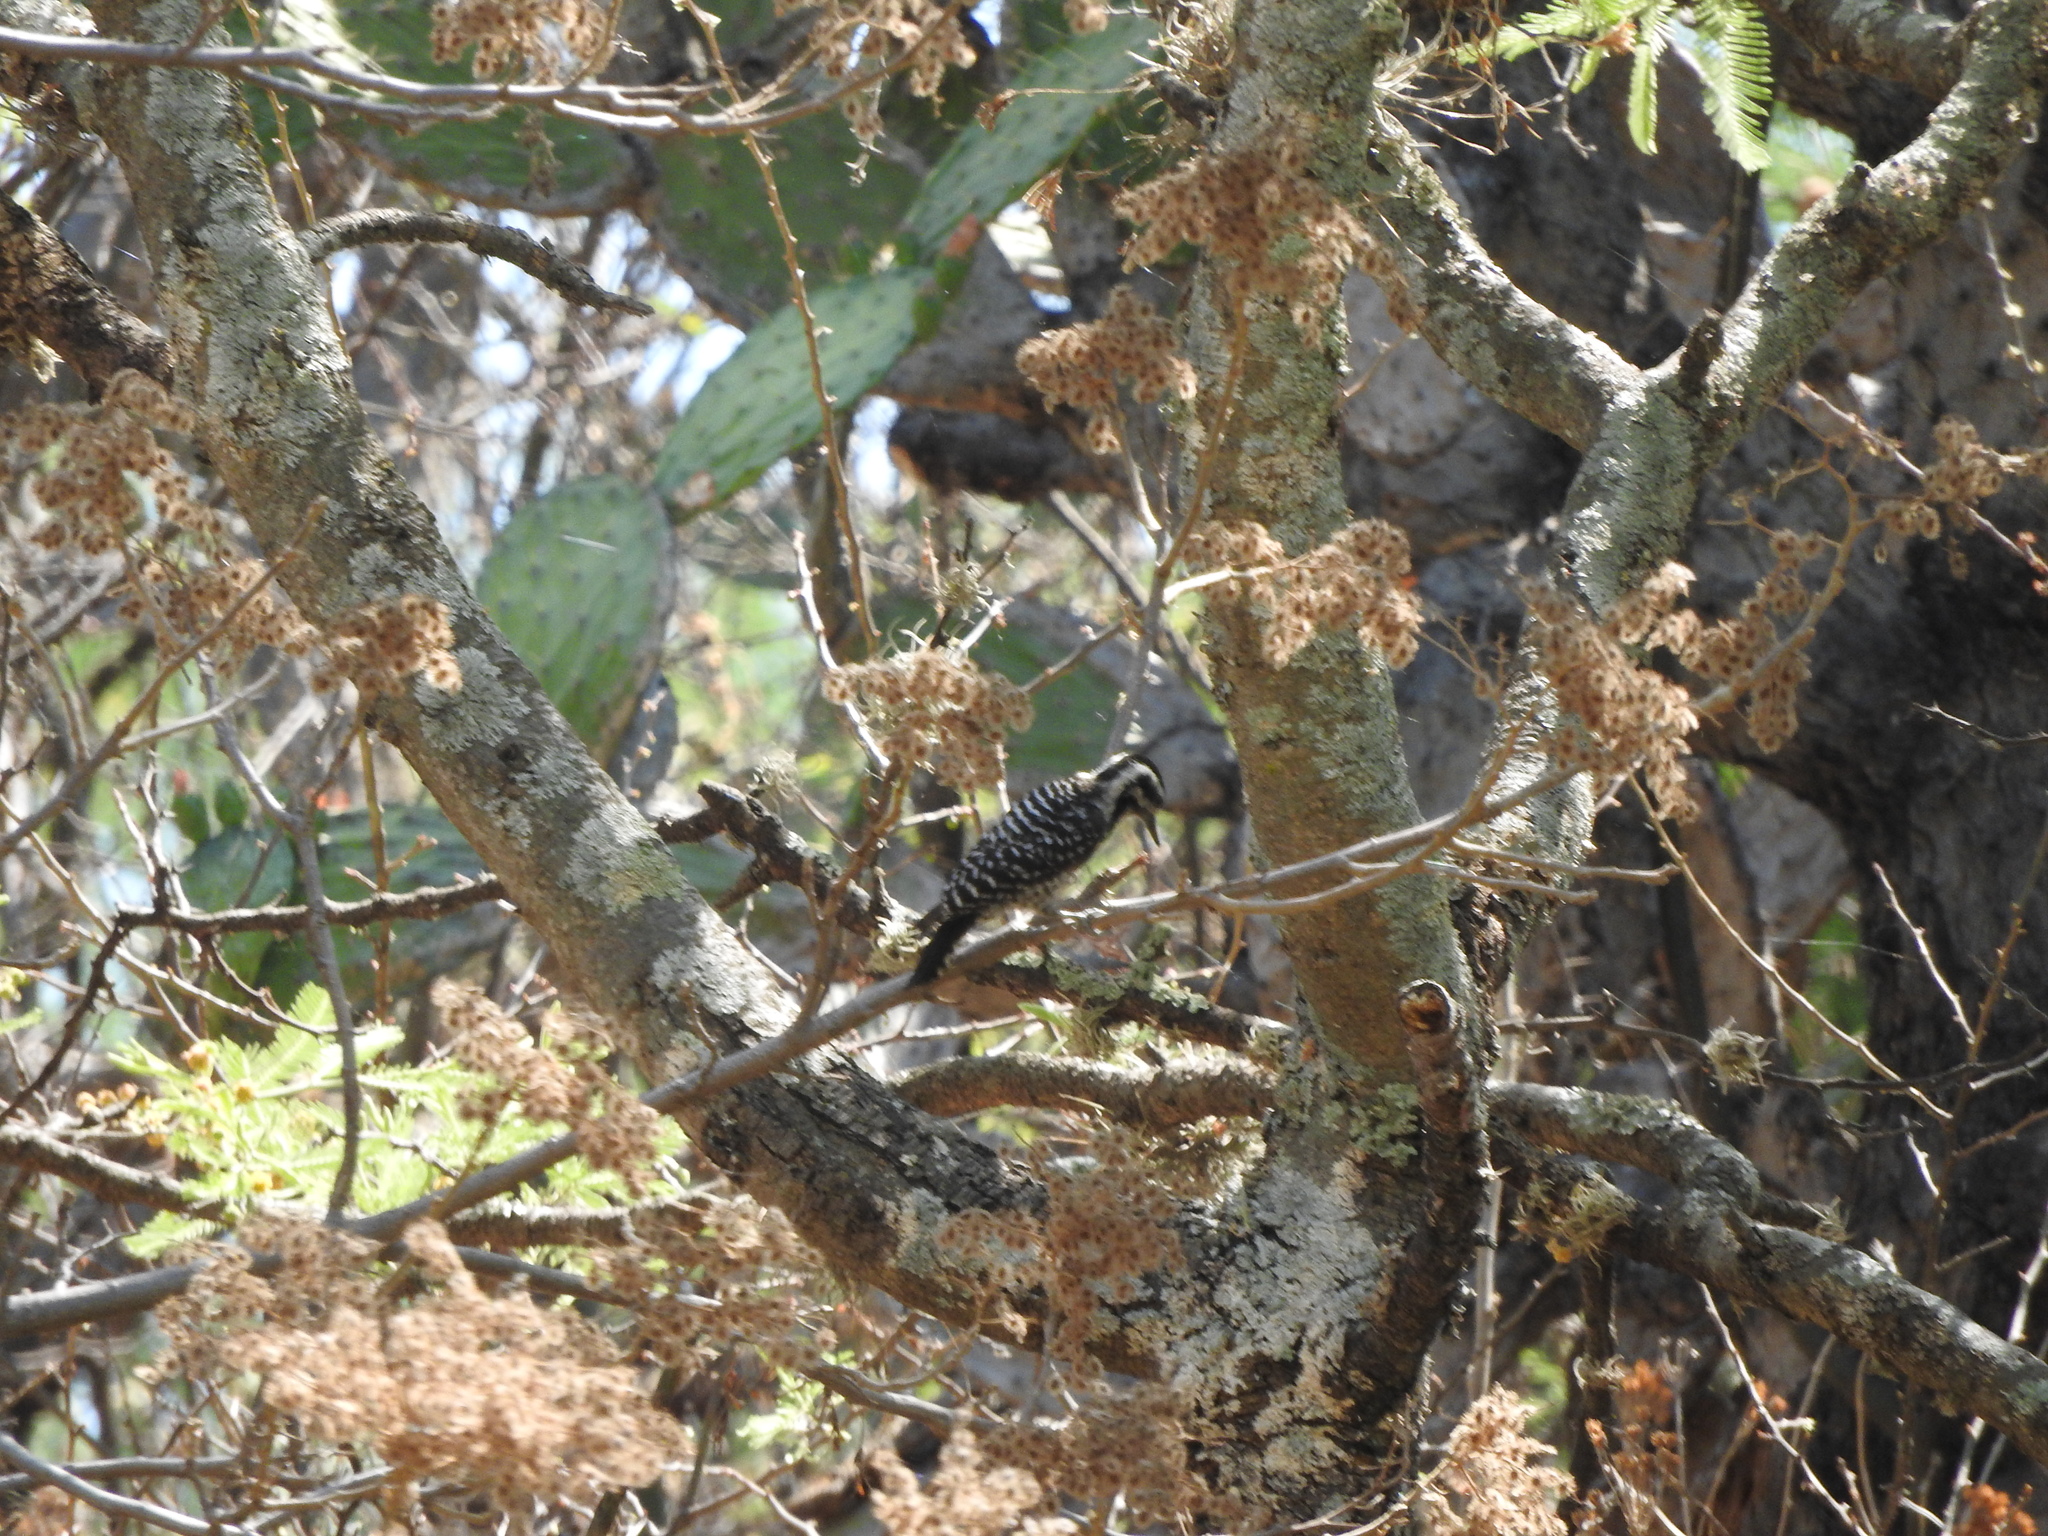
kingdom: Animalia
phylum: Chordata
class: Aves
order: Piciformes
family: Picidae
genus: Dryobates
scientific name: Dryobates scalaris
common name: Ladder-backed woodpecker
